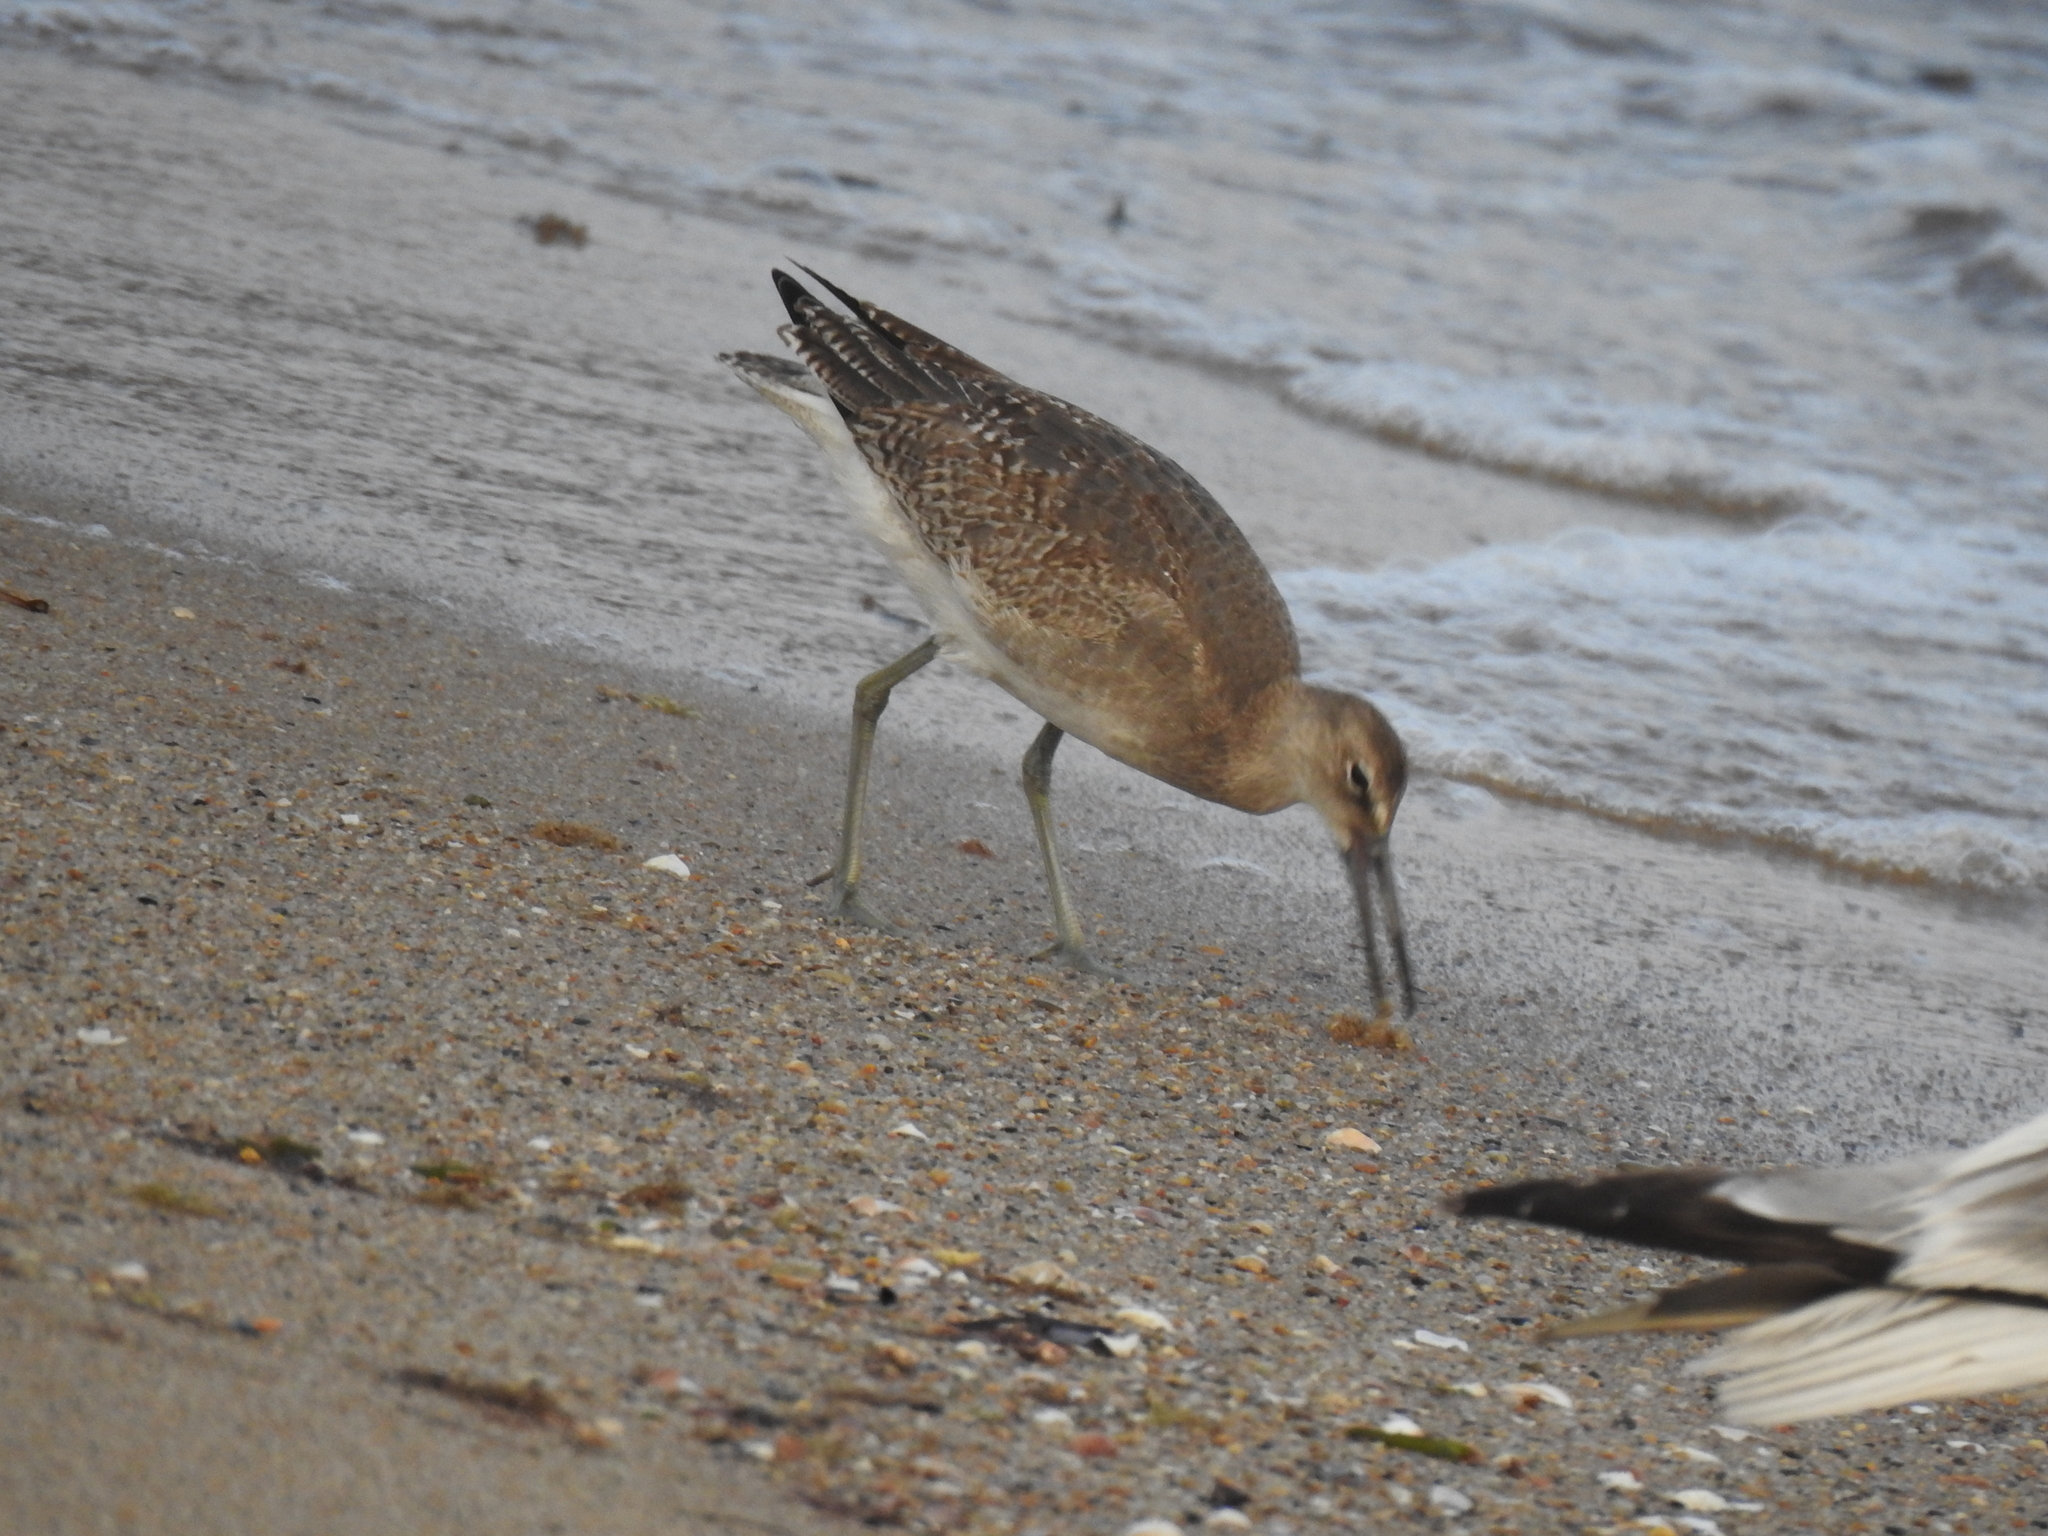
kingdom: Animalia
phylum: Chordata
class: Aves
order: Charadriiformes
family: Scolopacidae
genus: Tringa
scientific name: Tringa semipalmata
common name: Willet
